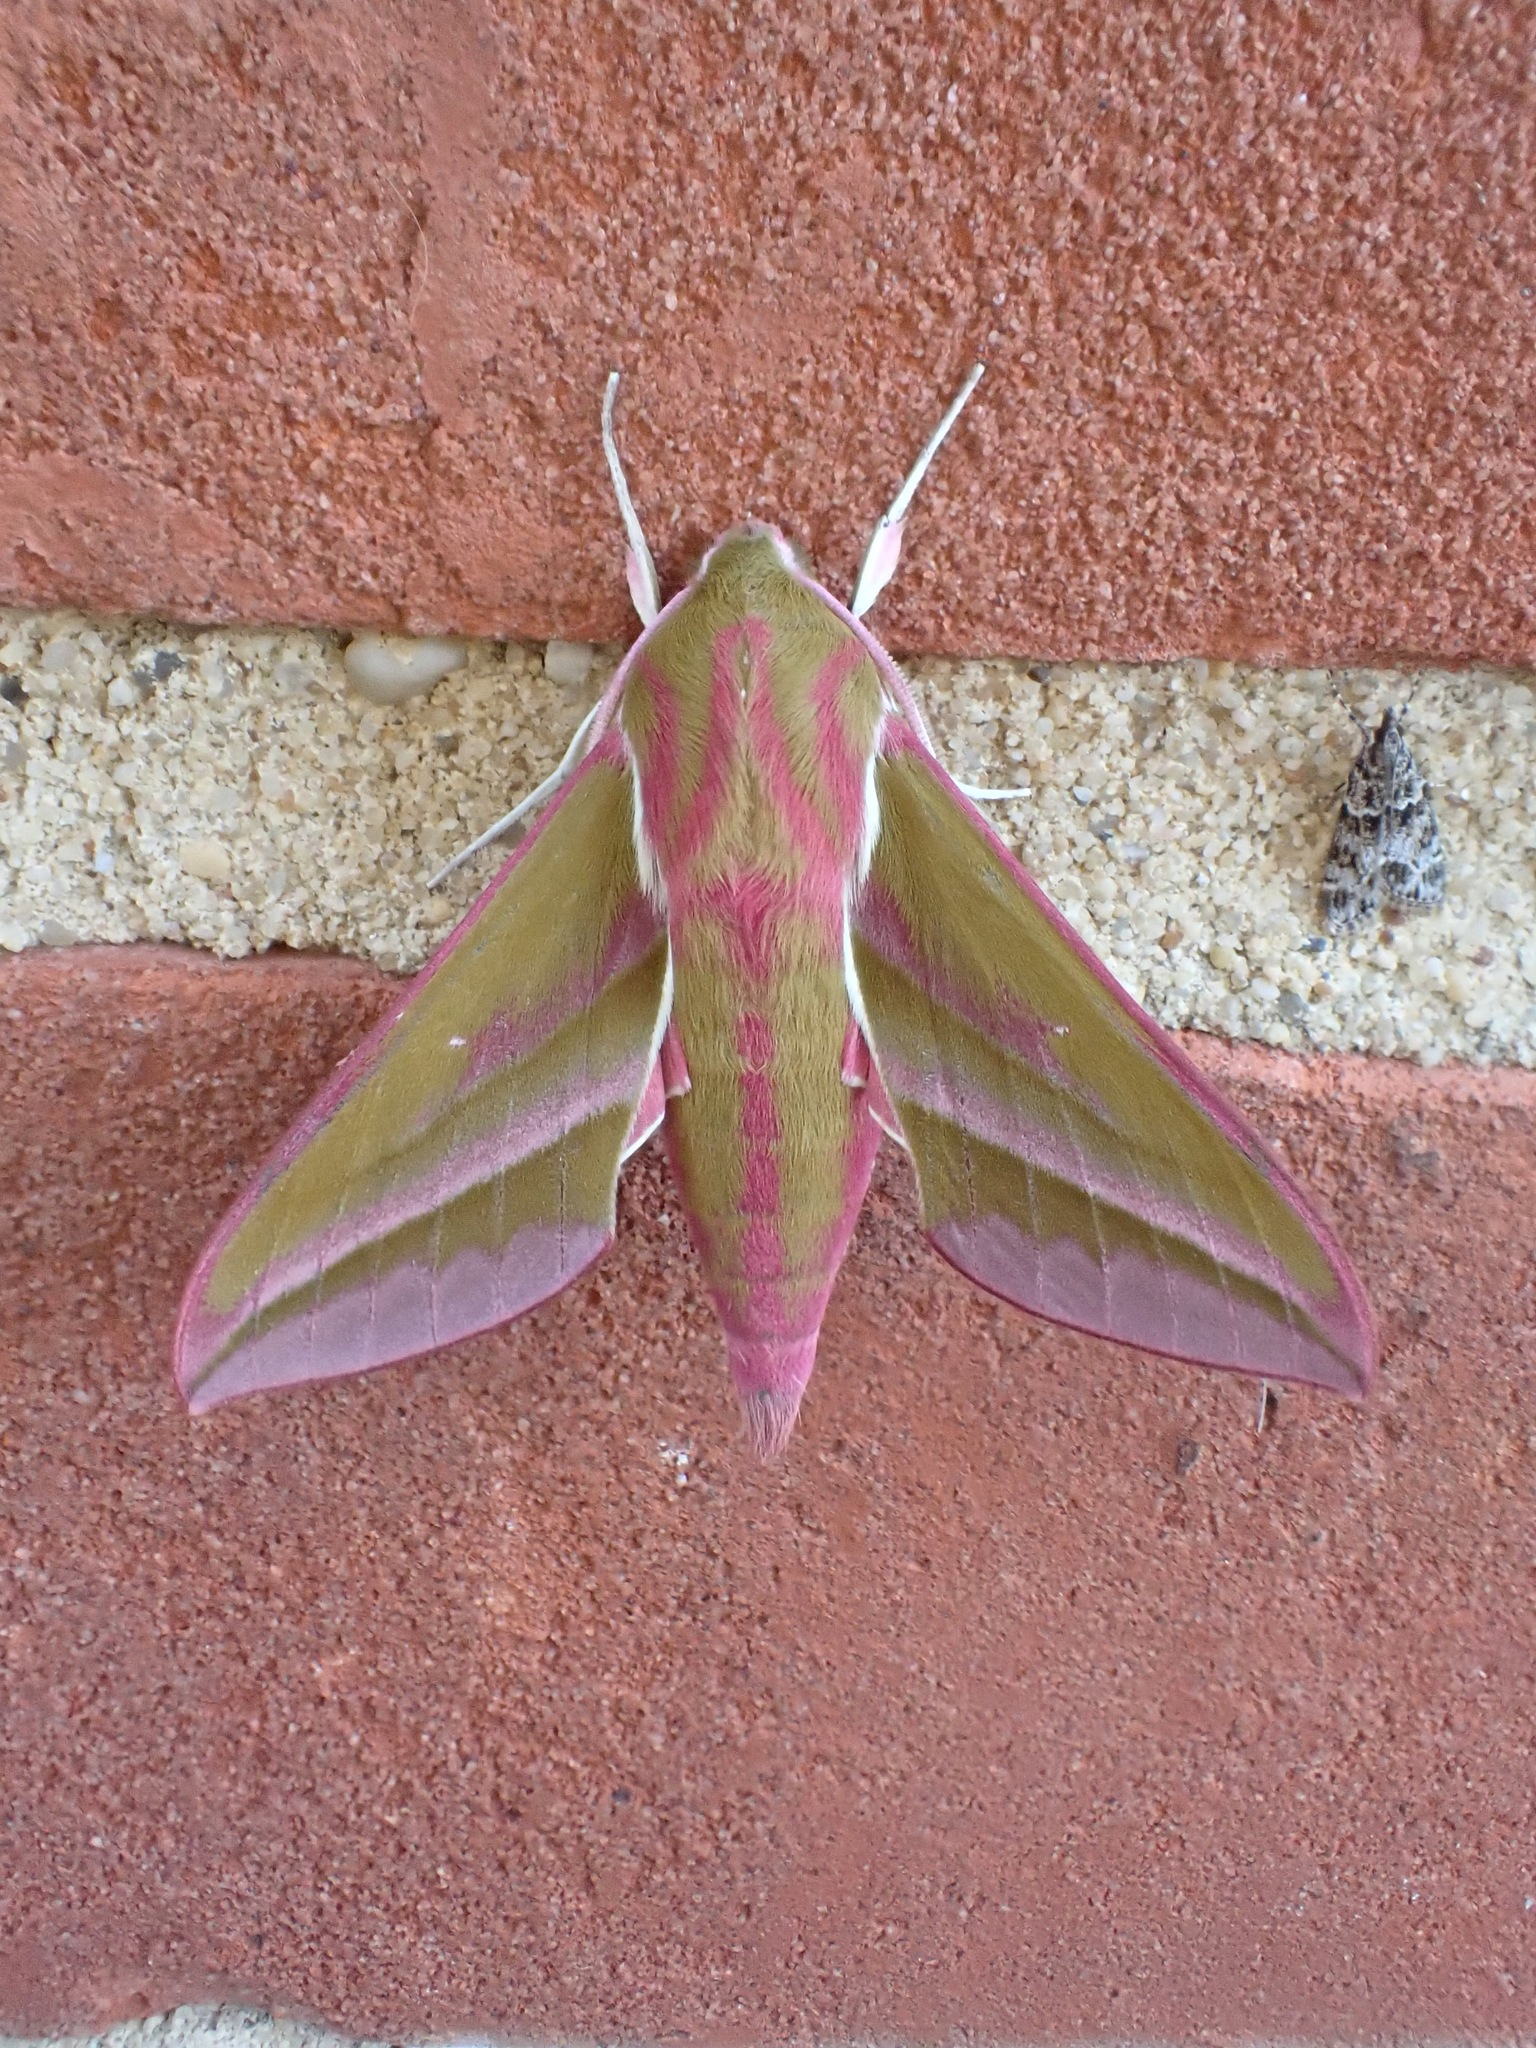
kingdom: Animalia
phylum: Arthropoda
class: Insecta
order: Lepidoptera
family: Sphingidae
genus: Deilephila
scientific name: Deilephila elpenor
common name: Elephant hawk-moth
